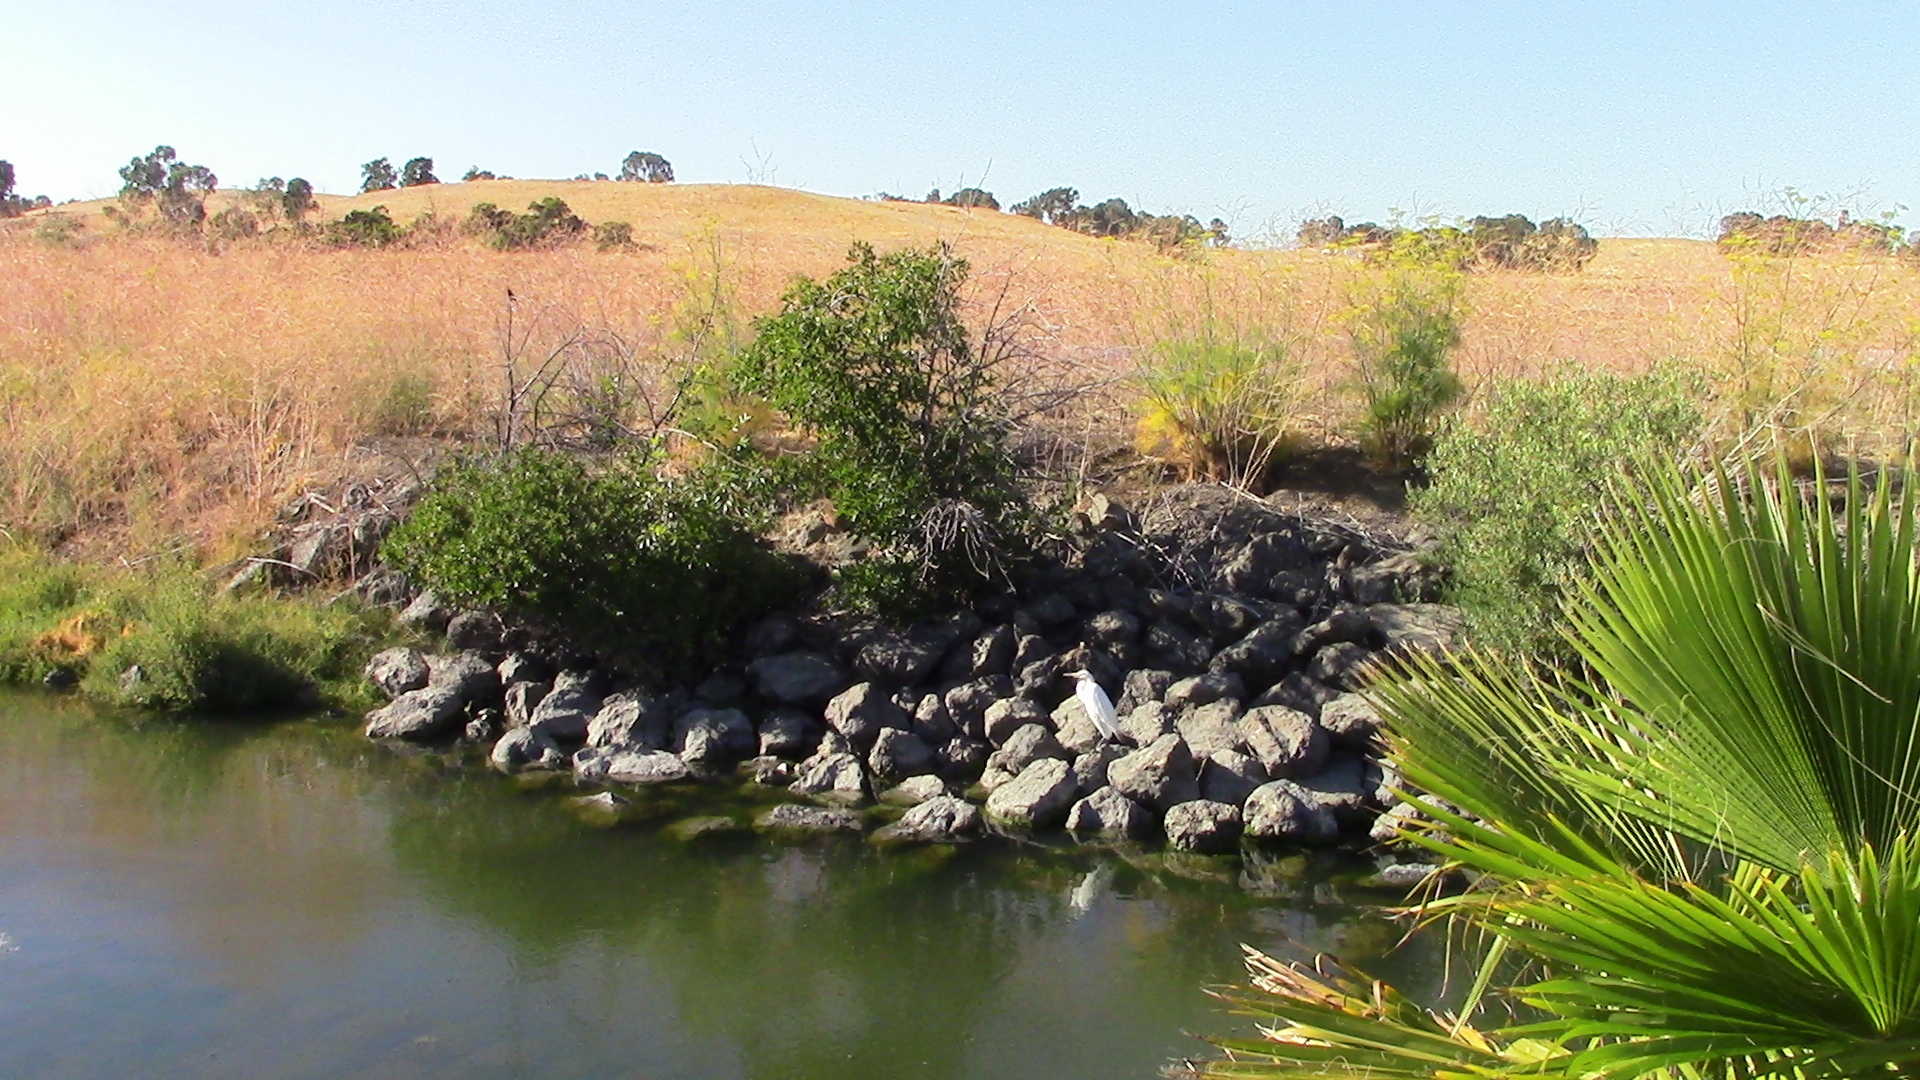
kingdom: Animalia
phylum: Chordata
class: Aves
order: Pelecaniformes
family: Ardeidae
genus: Ardea
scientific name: Ardea alba
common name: Great egret
